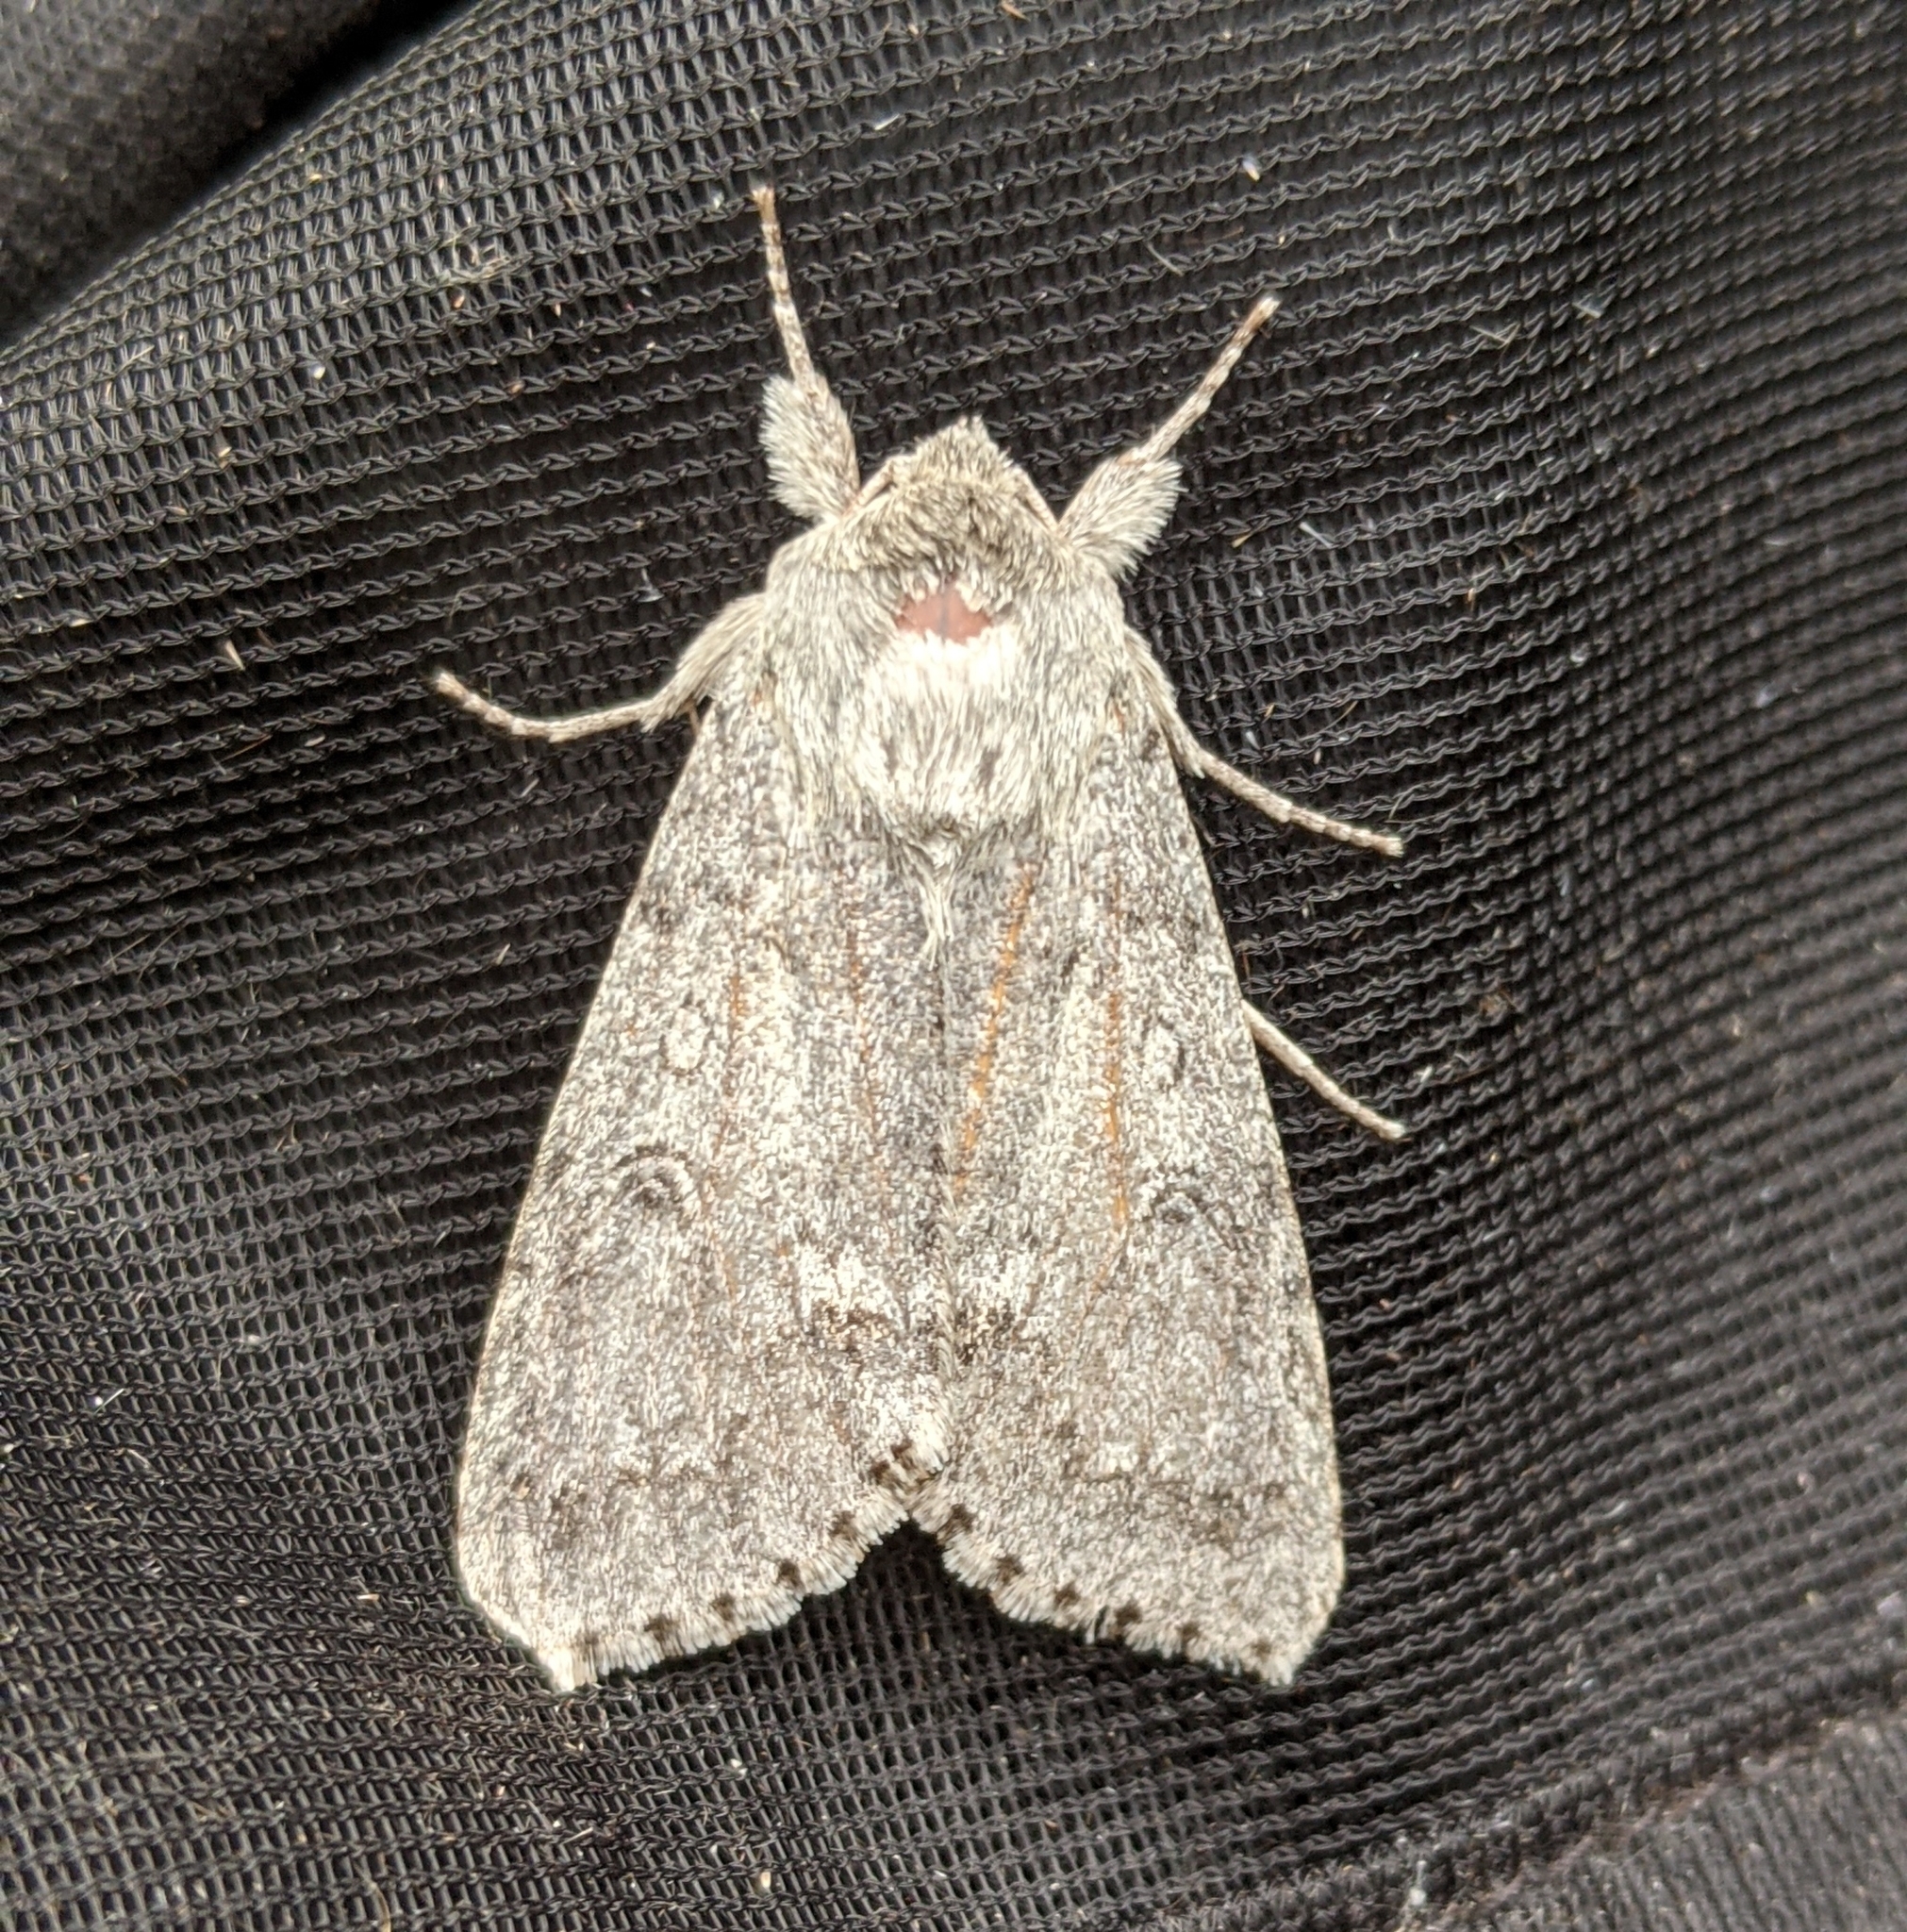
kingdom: Animalia
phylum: Arthropoda
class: Insecta
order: Lepidoptera
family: Noctuidae
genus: Acronicta
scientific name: Acronicta insita
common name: Large gray dagger
